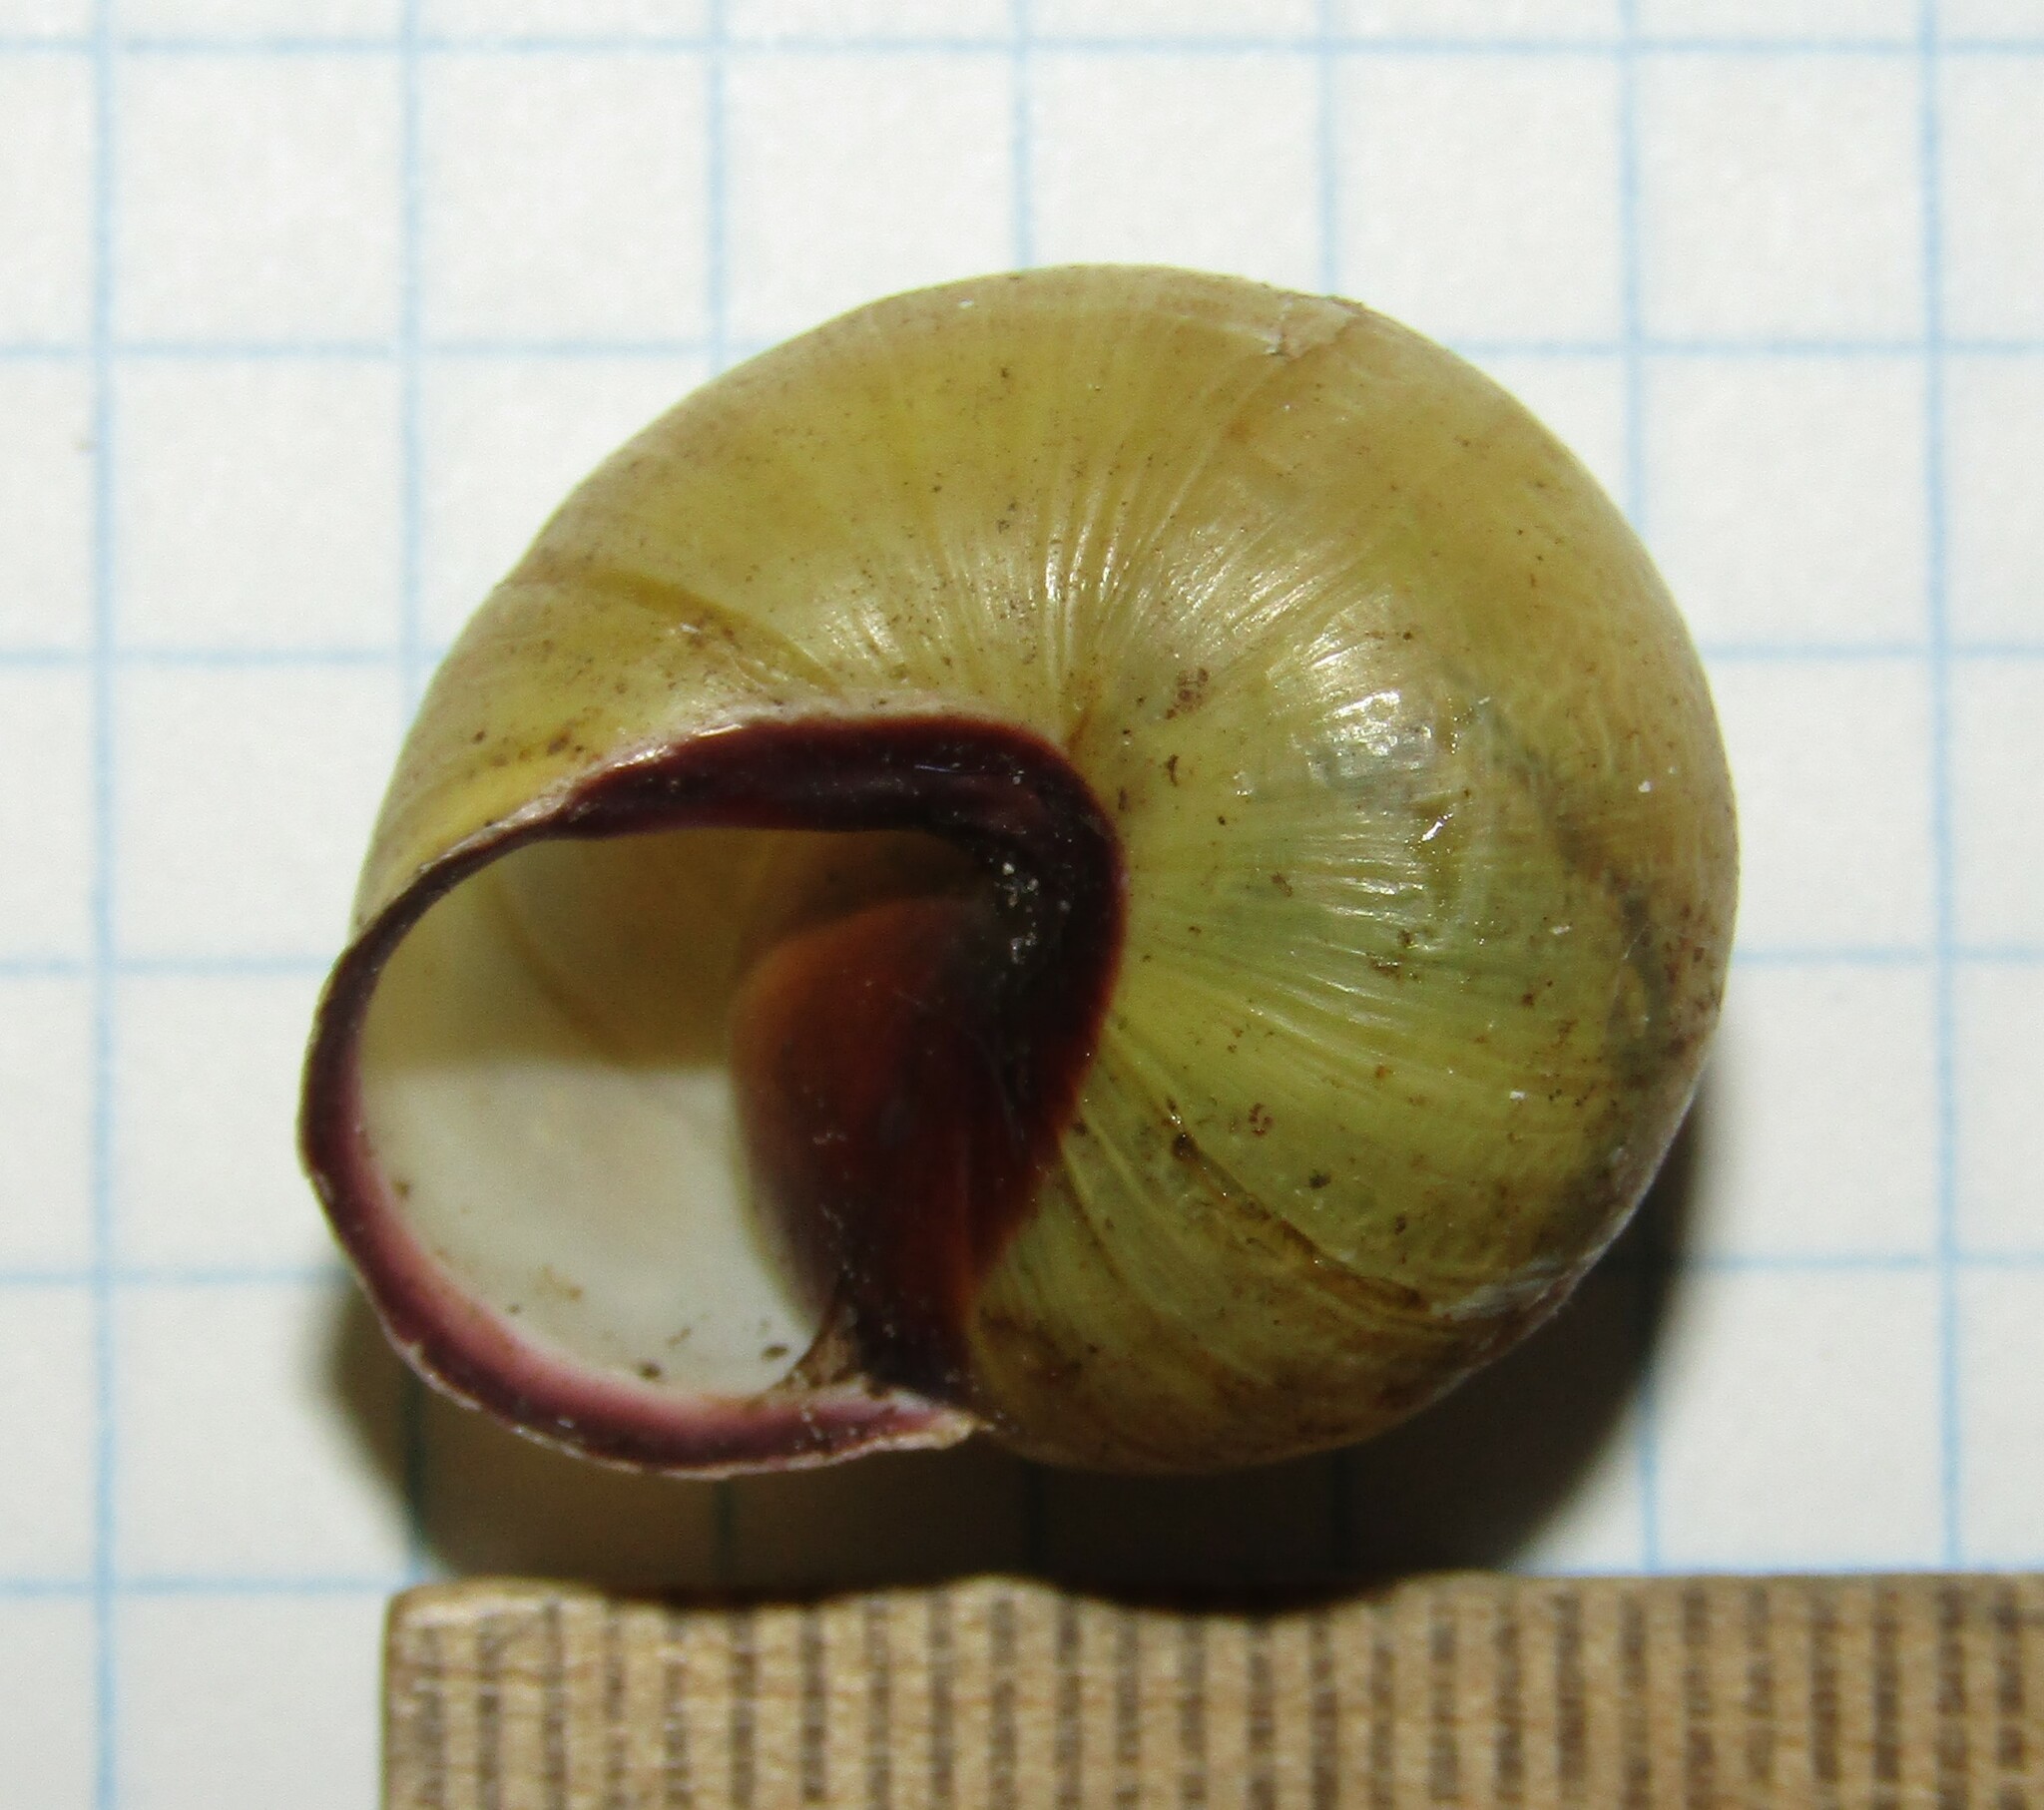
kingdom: Animalia
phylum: Mollusca
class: Gastropoda
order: Stylommatophora
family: Helicidae
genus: Cepaea
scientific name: Cepaea nemoralis
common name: Grovesnail
